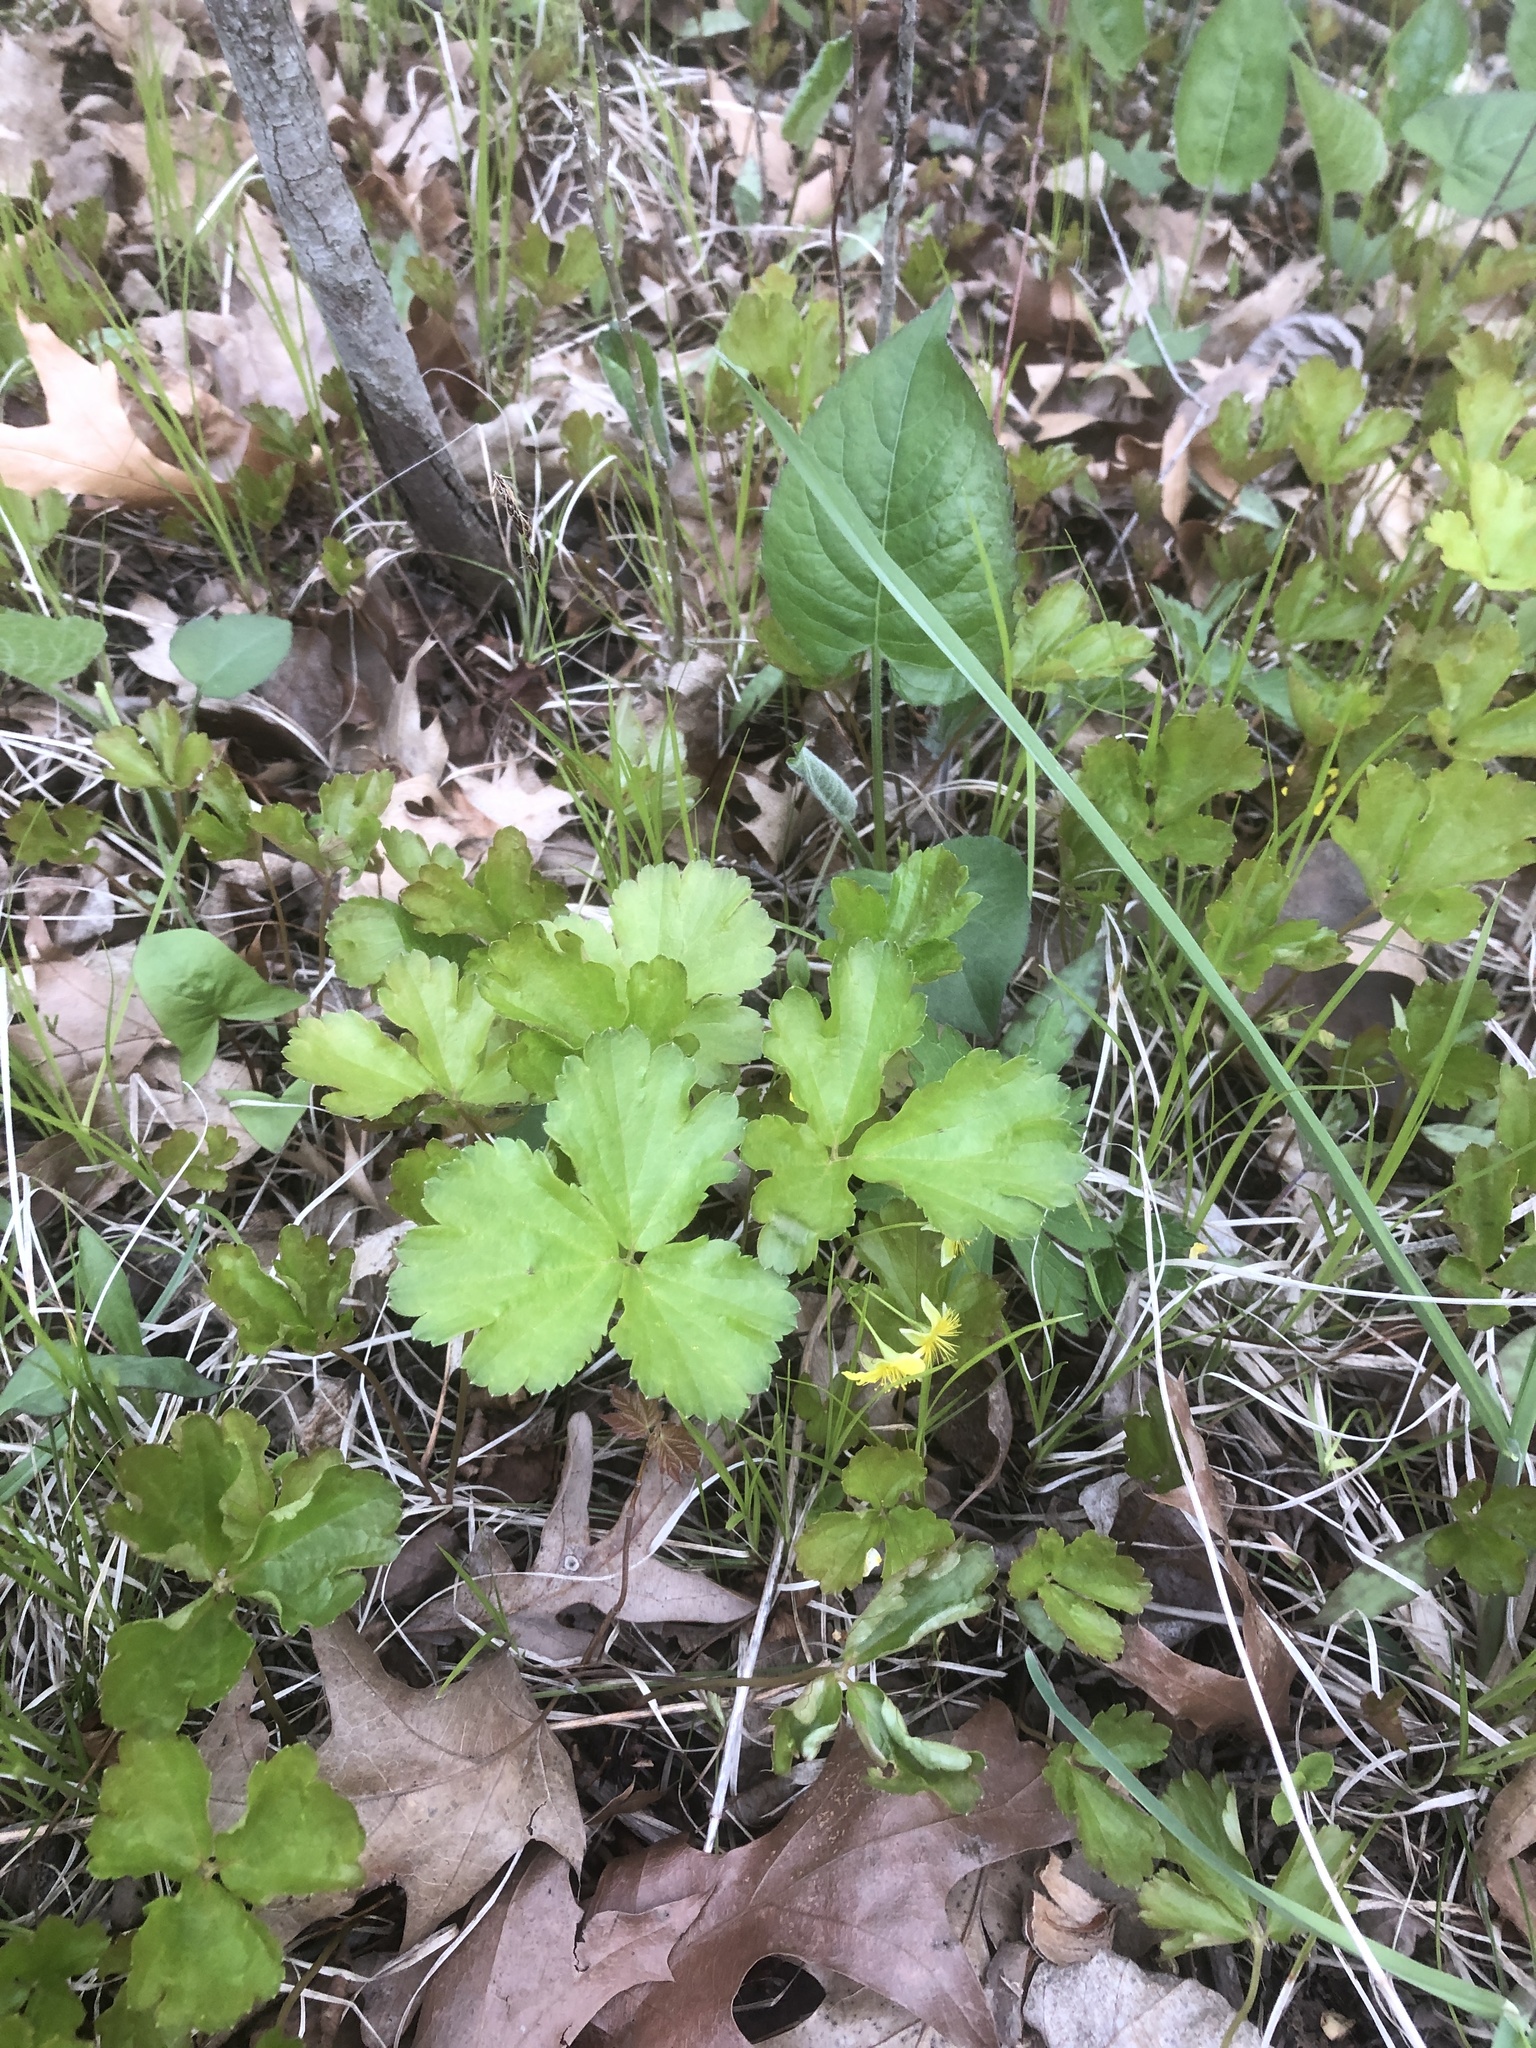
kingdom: Plantae
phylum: Tracheophyta
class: Magnoliopsida
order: Rosales
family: Rosaceae
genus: Geum
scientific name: Geum fragarioides
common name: Appalachian barren strawberry
